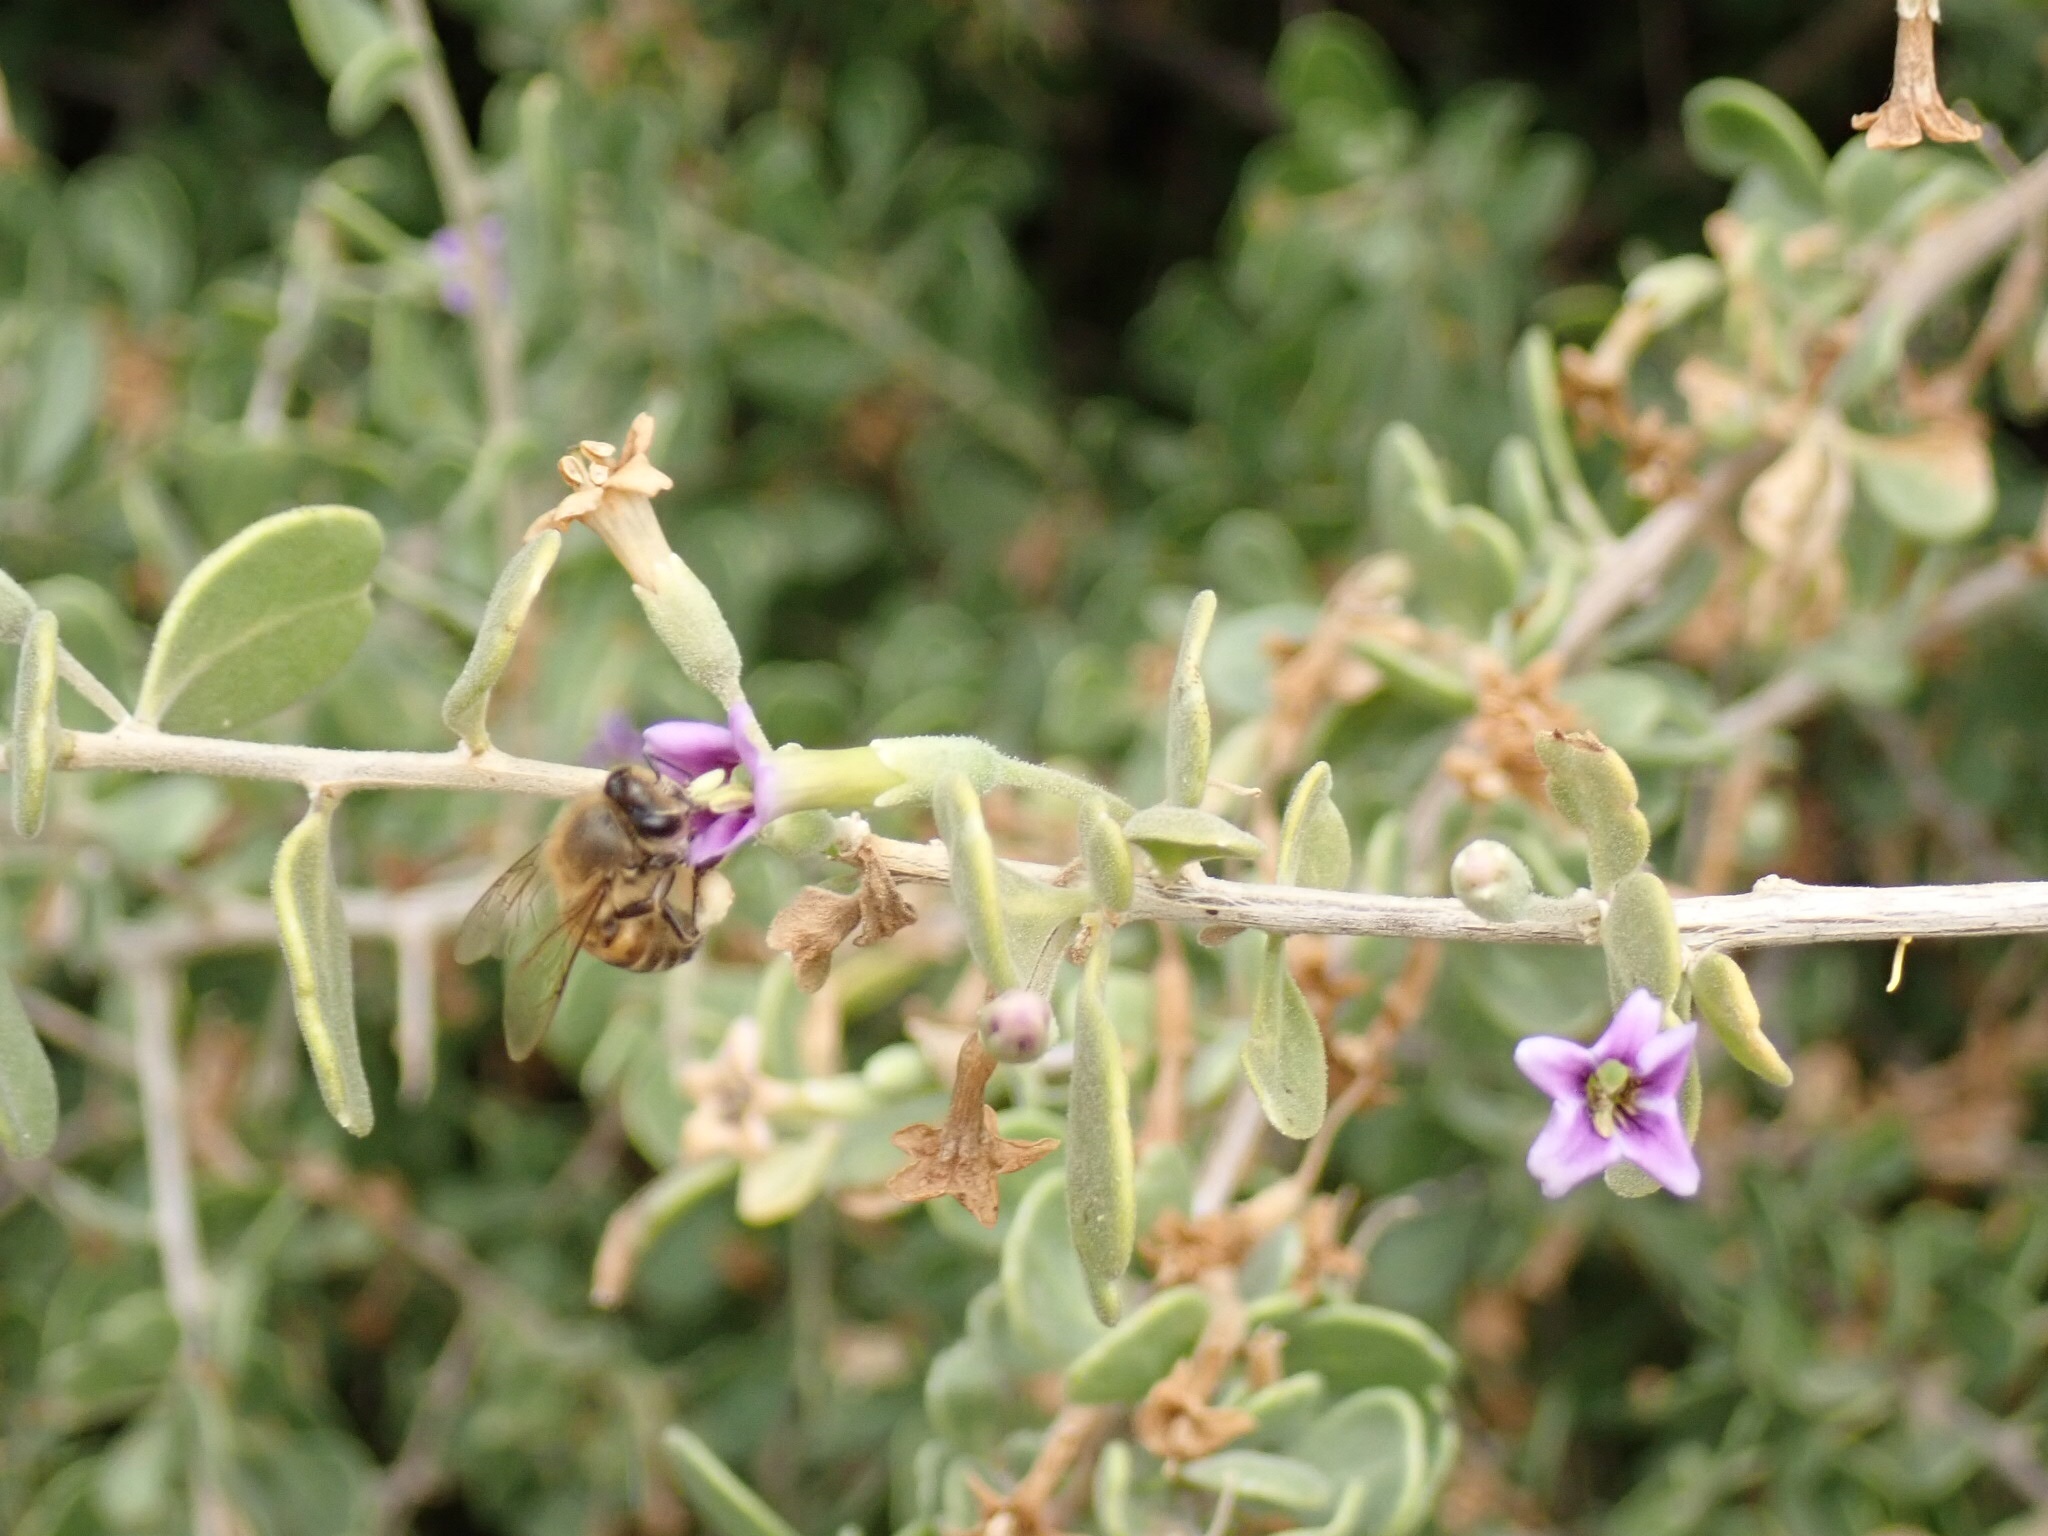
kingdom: Animalia
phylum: Arthropoda
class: Insecta
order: Hymenoptera
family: Apidae
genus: Apis
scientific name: Apis mellifera
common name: Honey bee
